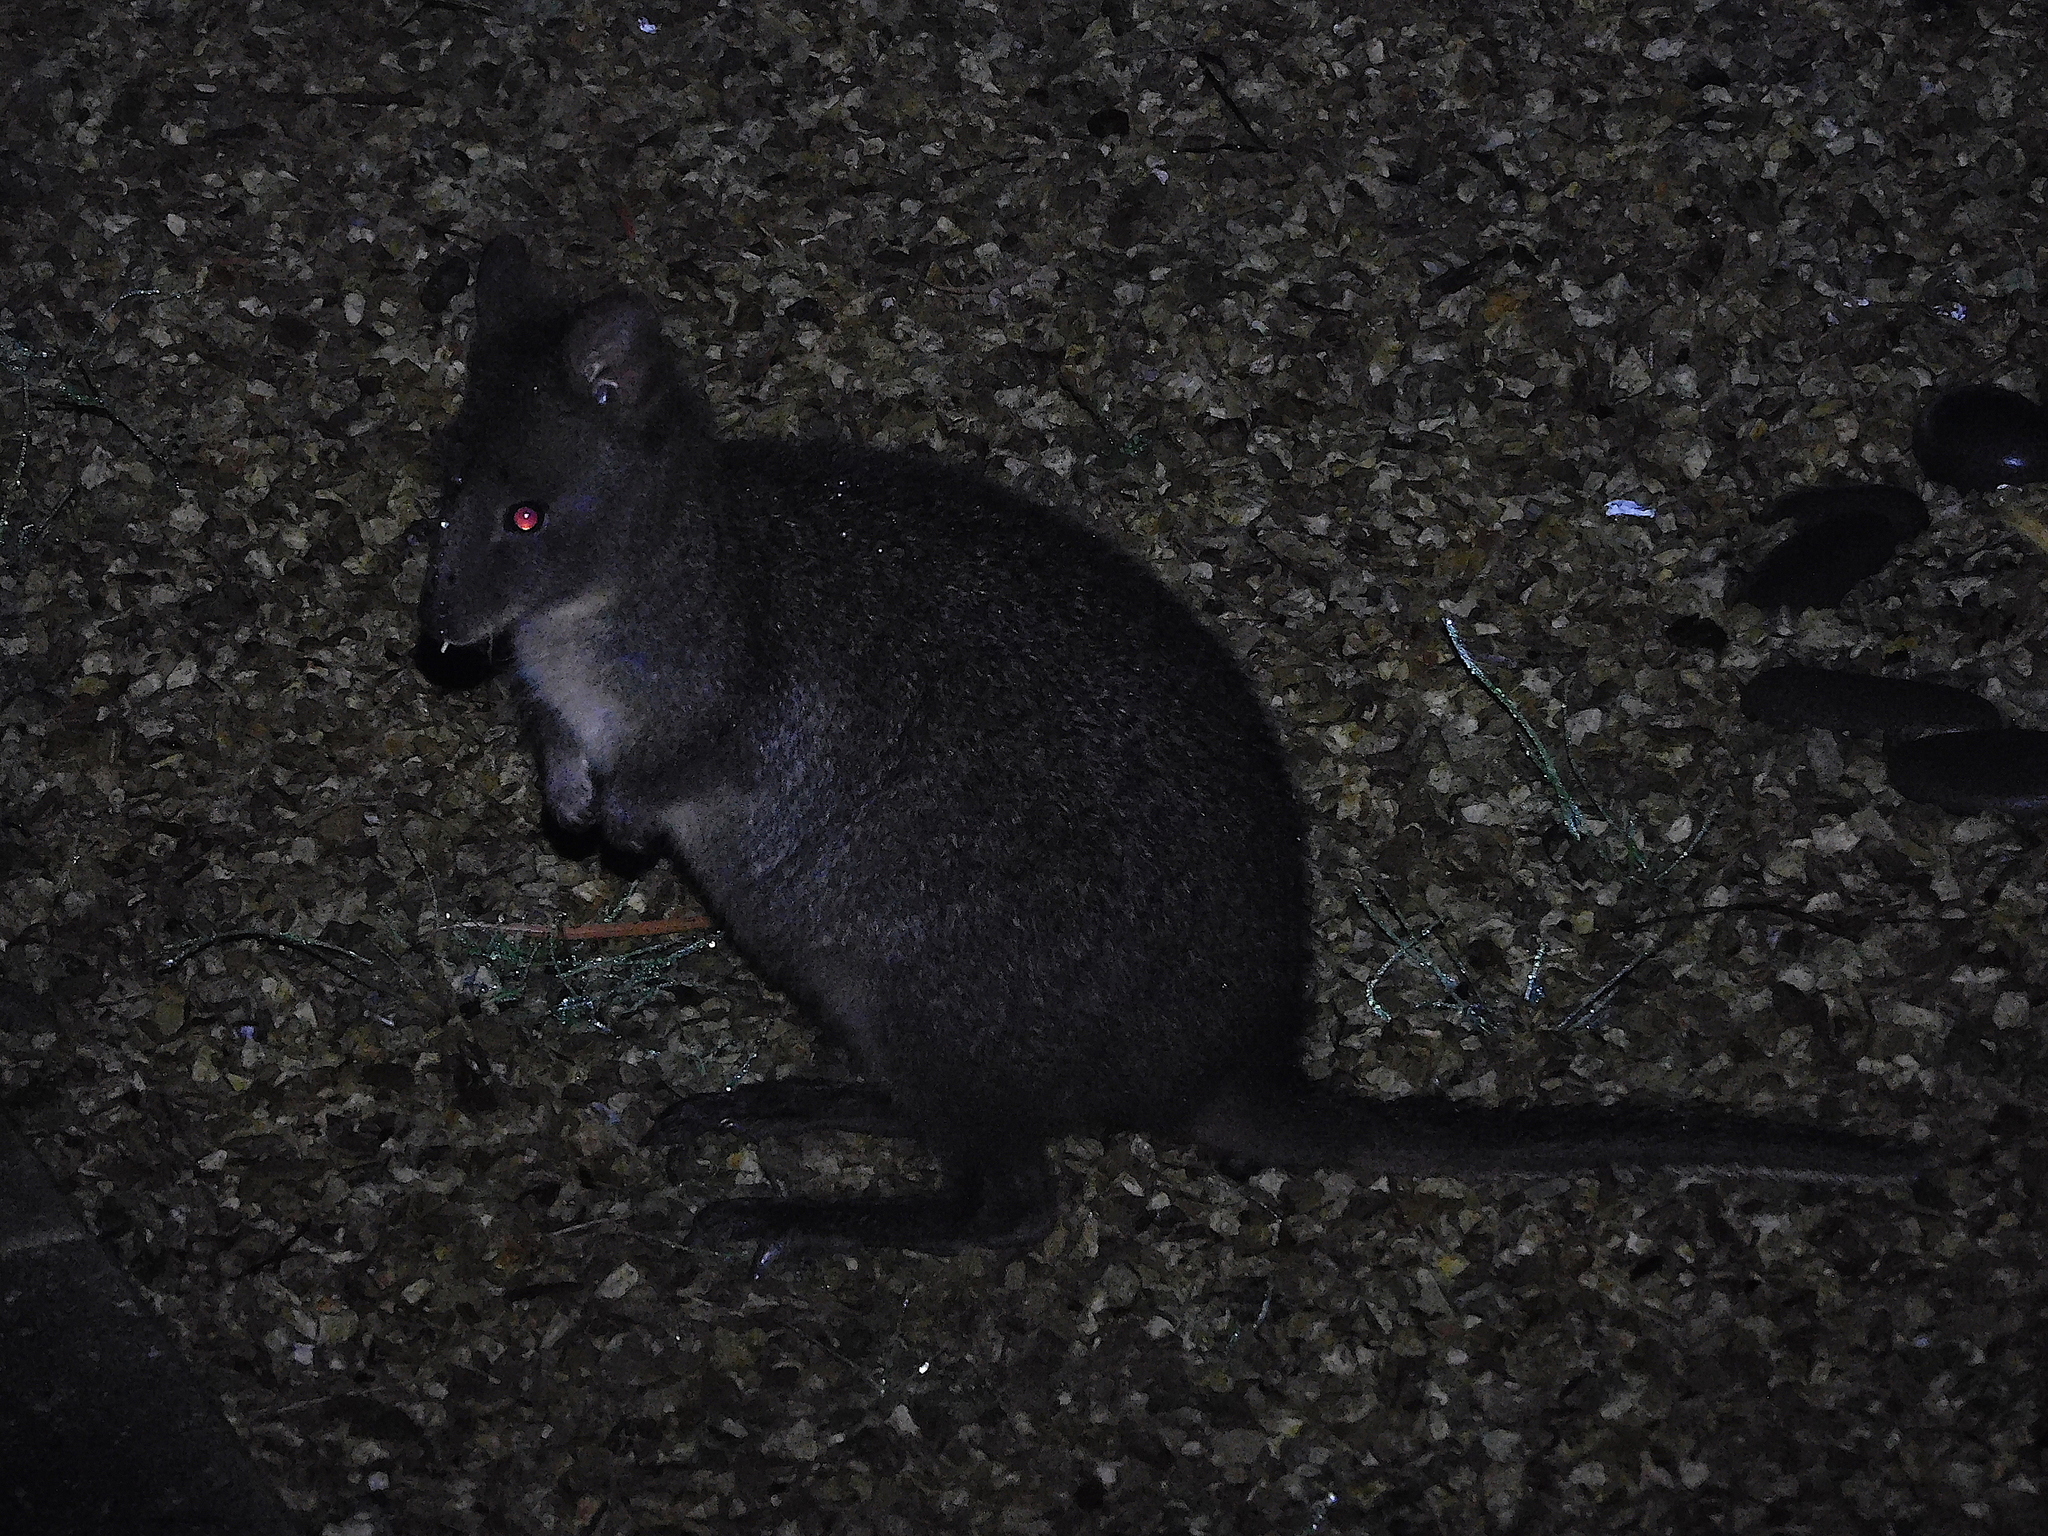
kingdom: Animalia
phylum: Chordata
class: Mammalia
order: Diprotodontia
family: Macropodidae
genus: Thylogale
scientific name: Thylogale billardierii
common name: Tasmanian pademelon
